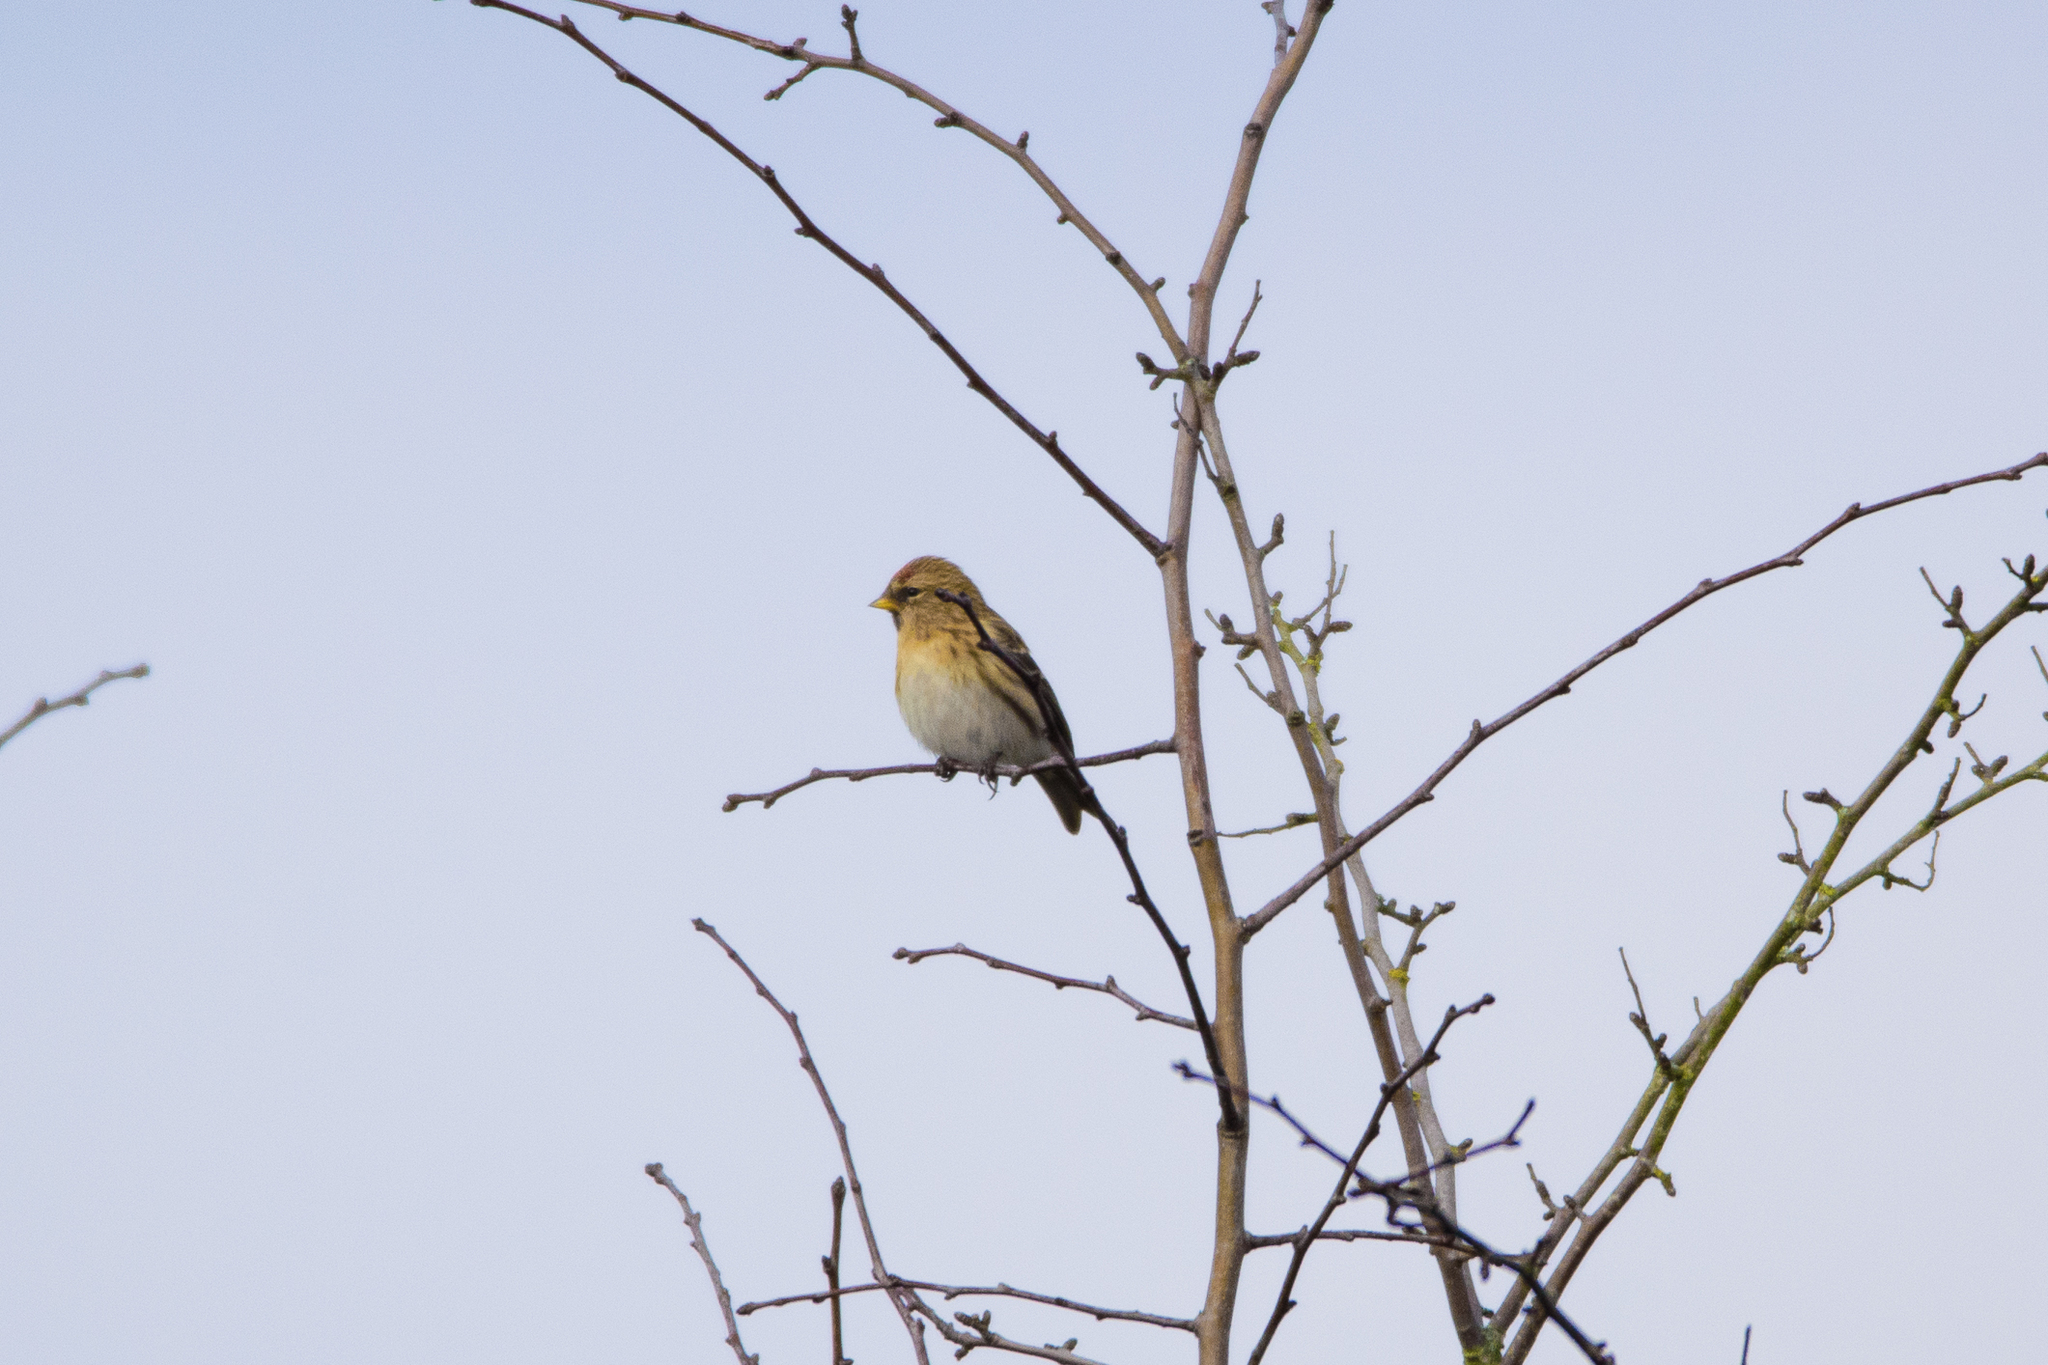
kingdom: Animalia
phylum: Chordata
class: Aves
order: Passeriformes
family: Fringillidae
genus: Acanthis
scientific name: Acanthis flammea
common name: Common redpoll
